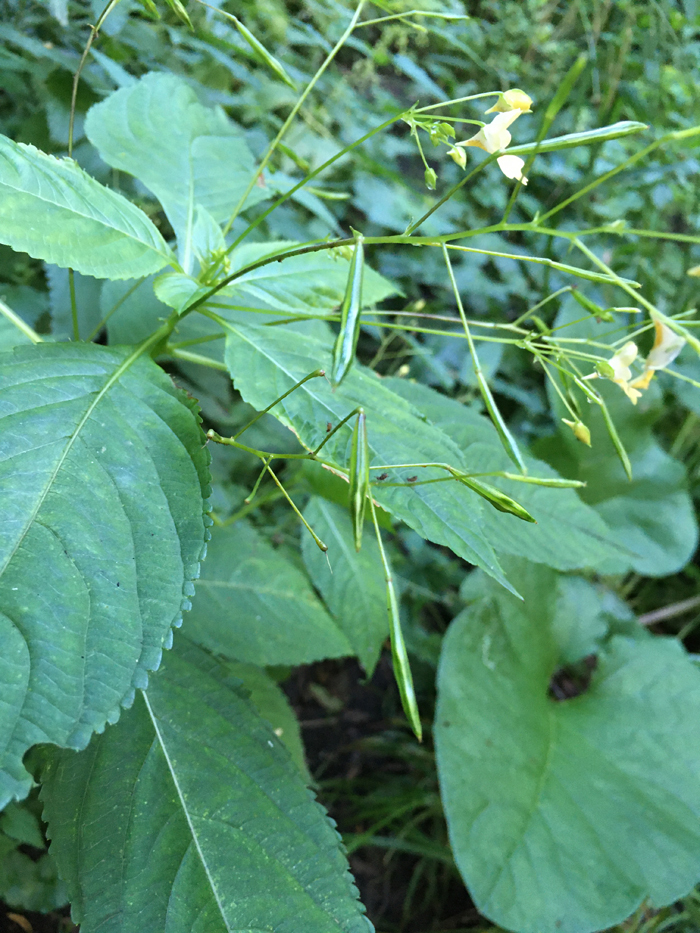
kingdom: Plantae
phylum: Tracheophyta
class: Magnoliopsida
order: Ericales
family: Balsaminaceae
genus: Impatiens
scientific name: Impatiens parviflora
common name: Small balsam
